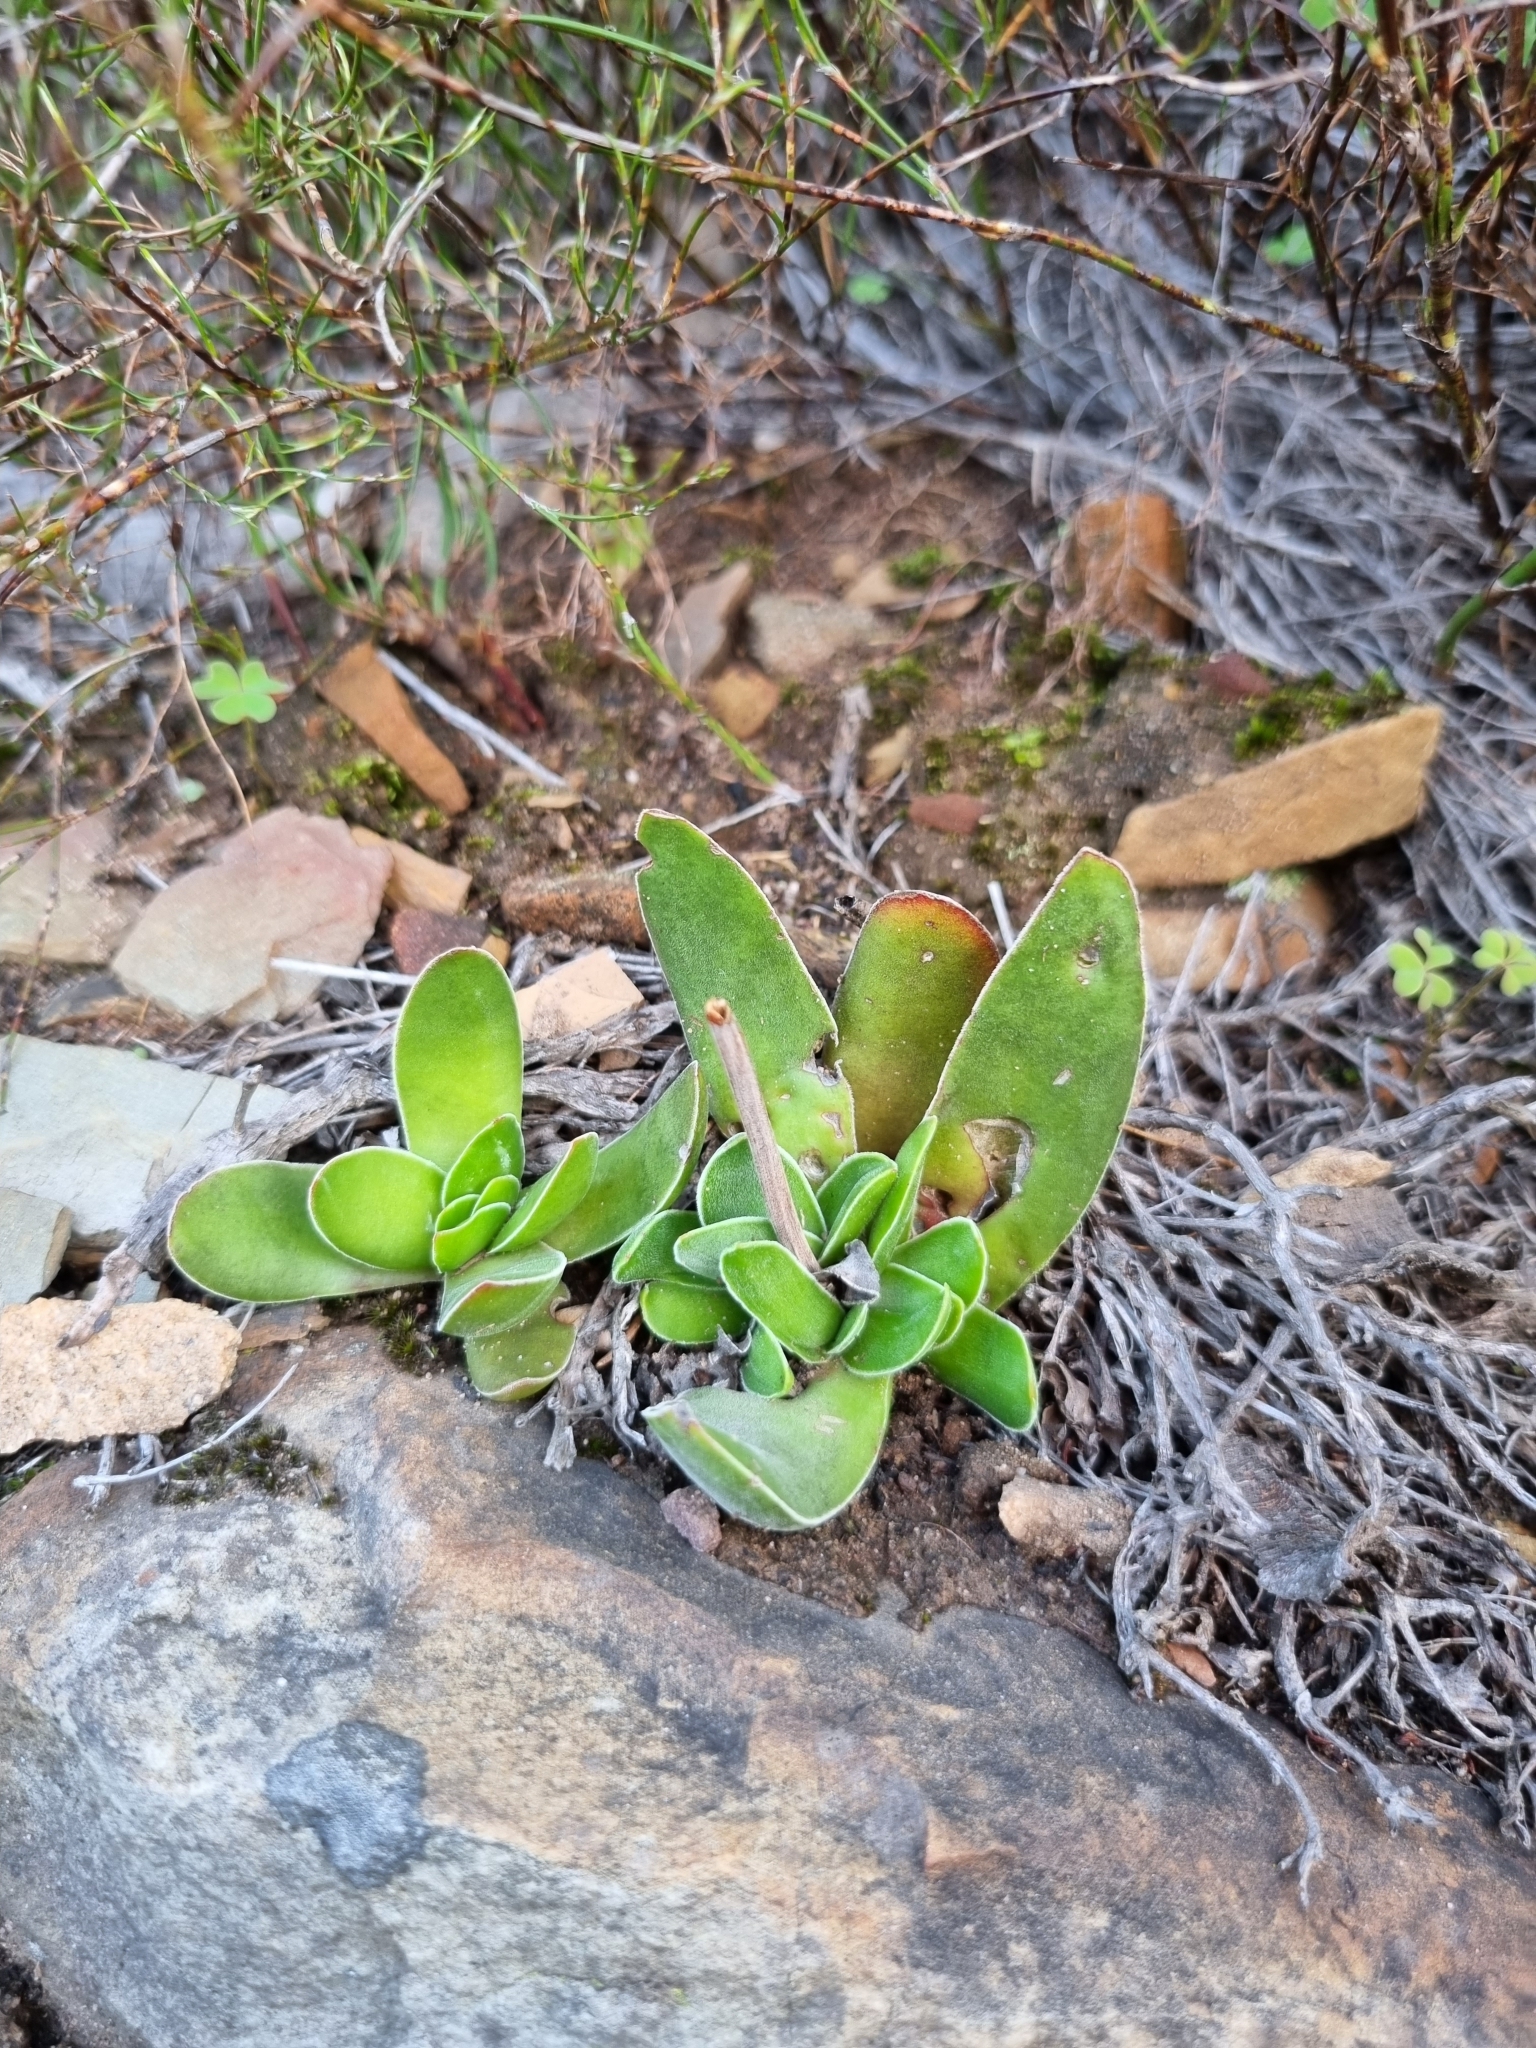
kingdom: Plantae
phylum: Tracheophyta
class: Magnoliopsida
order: Saxifragales
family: Crassulaceae
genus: Crassula
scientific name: Crassula nudicaulis
